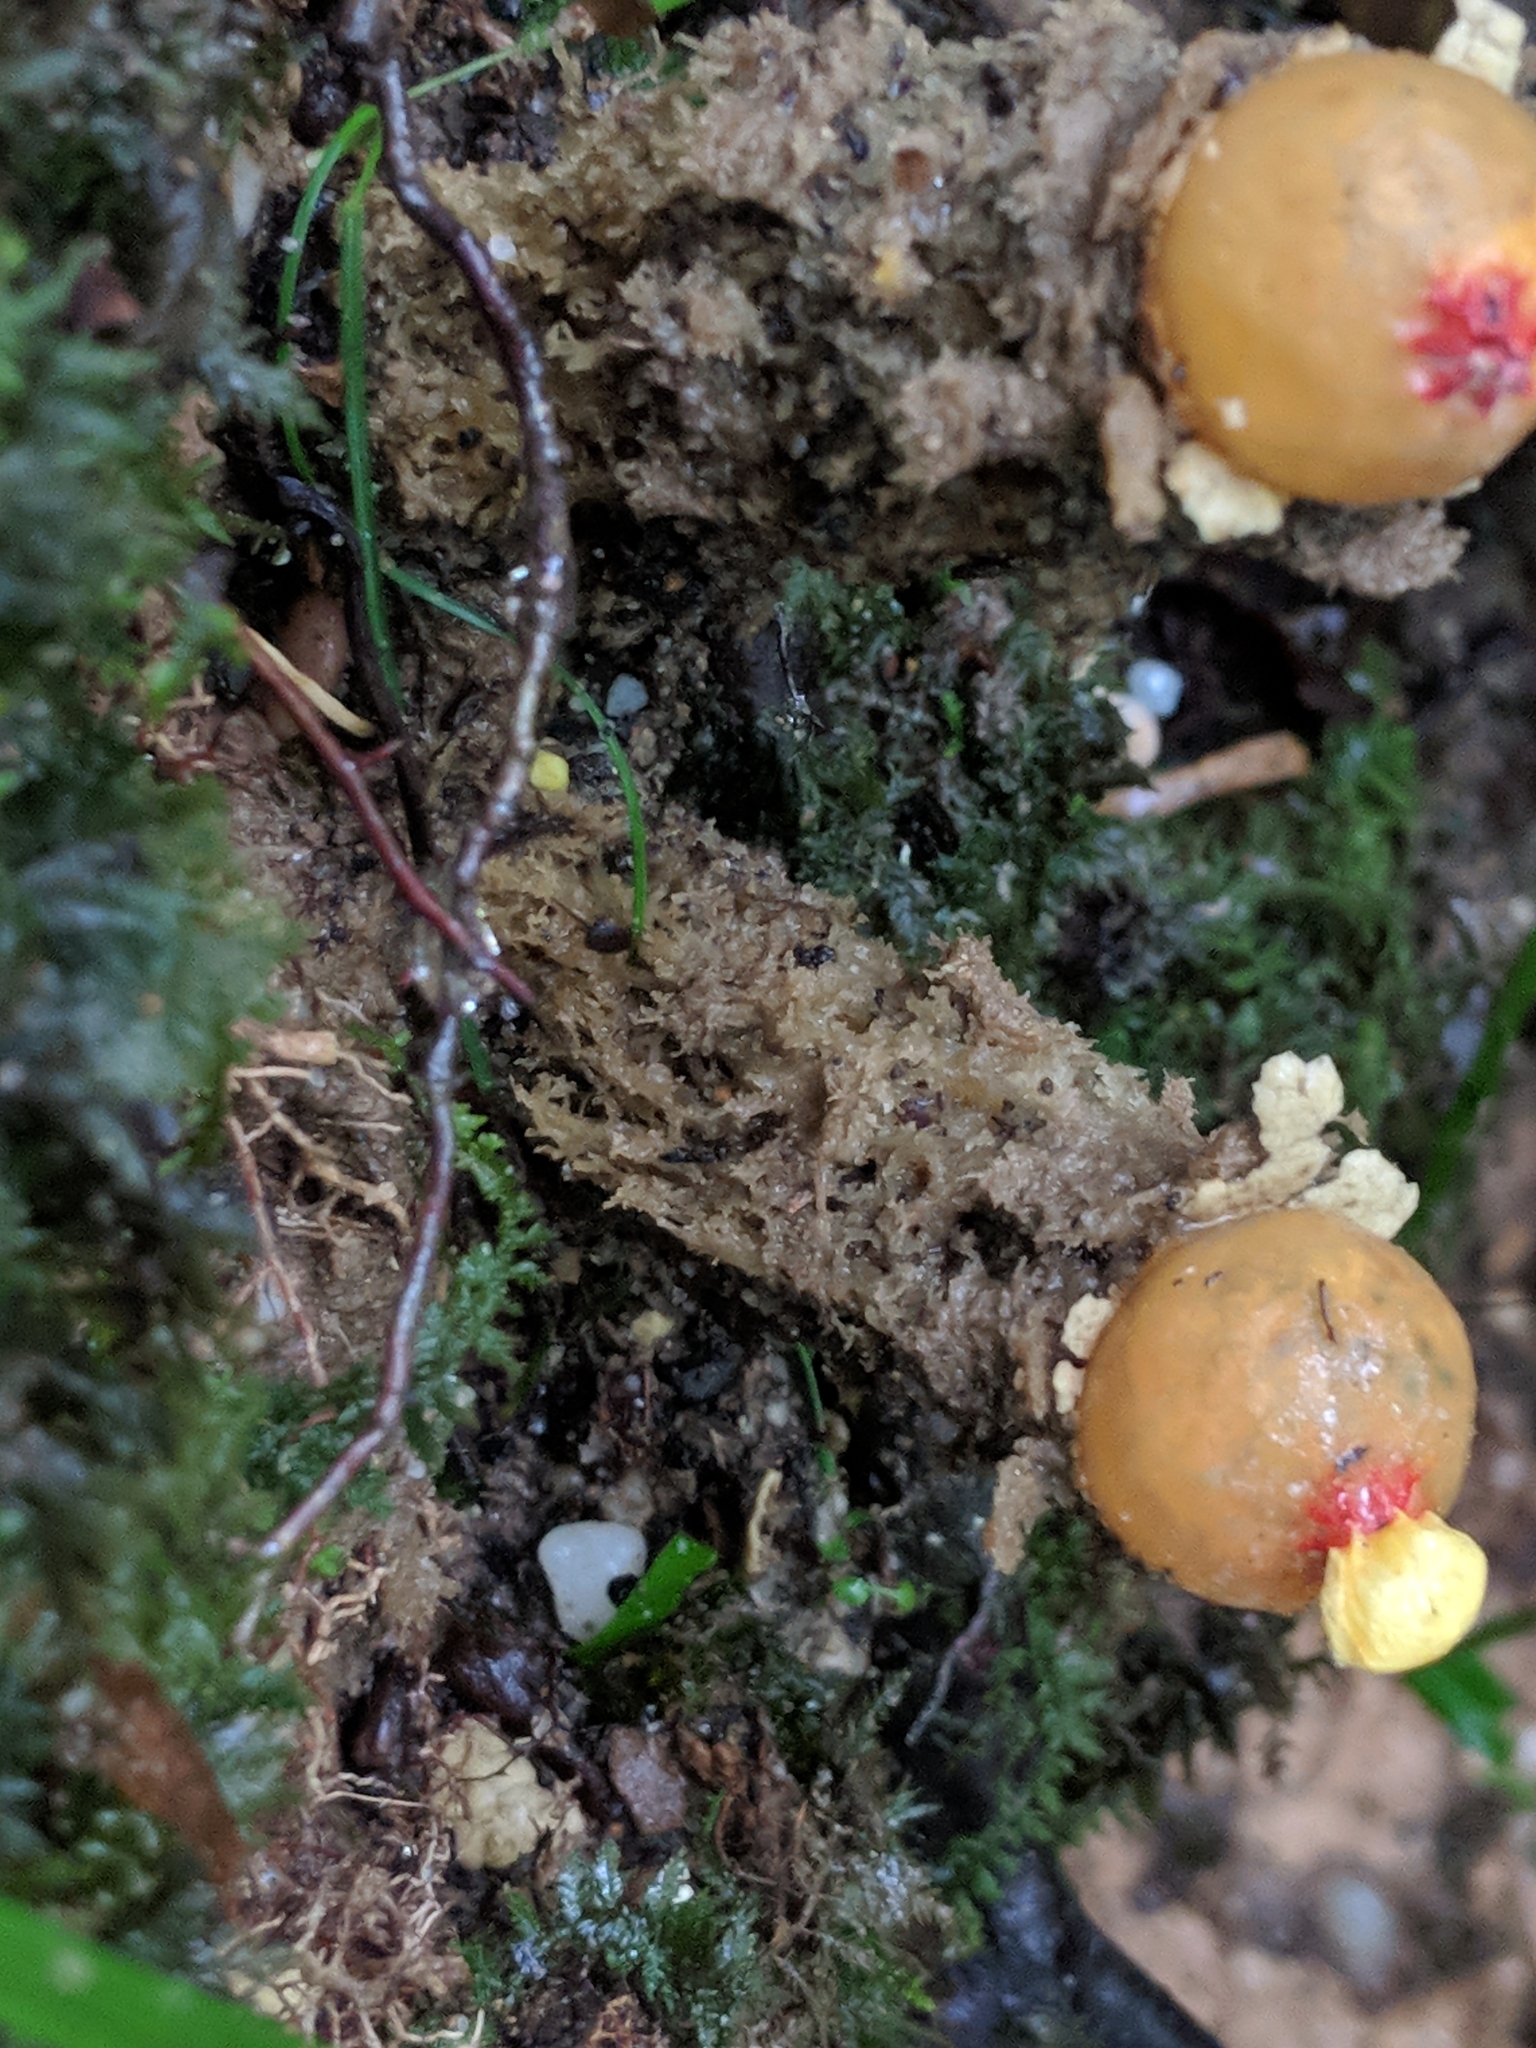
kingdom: Fungi
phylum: Basidiomycota
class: Agaricomycetes
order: Boletales
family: Calostomataceae
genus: Calostoma
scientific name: Calostoma lutescens
